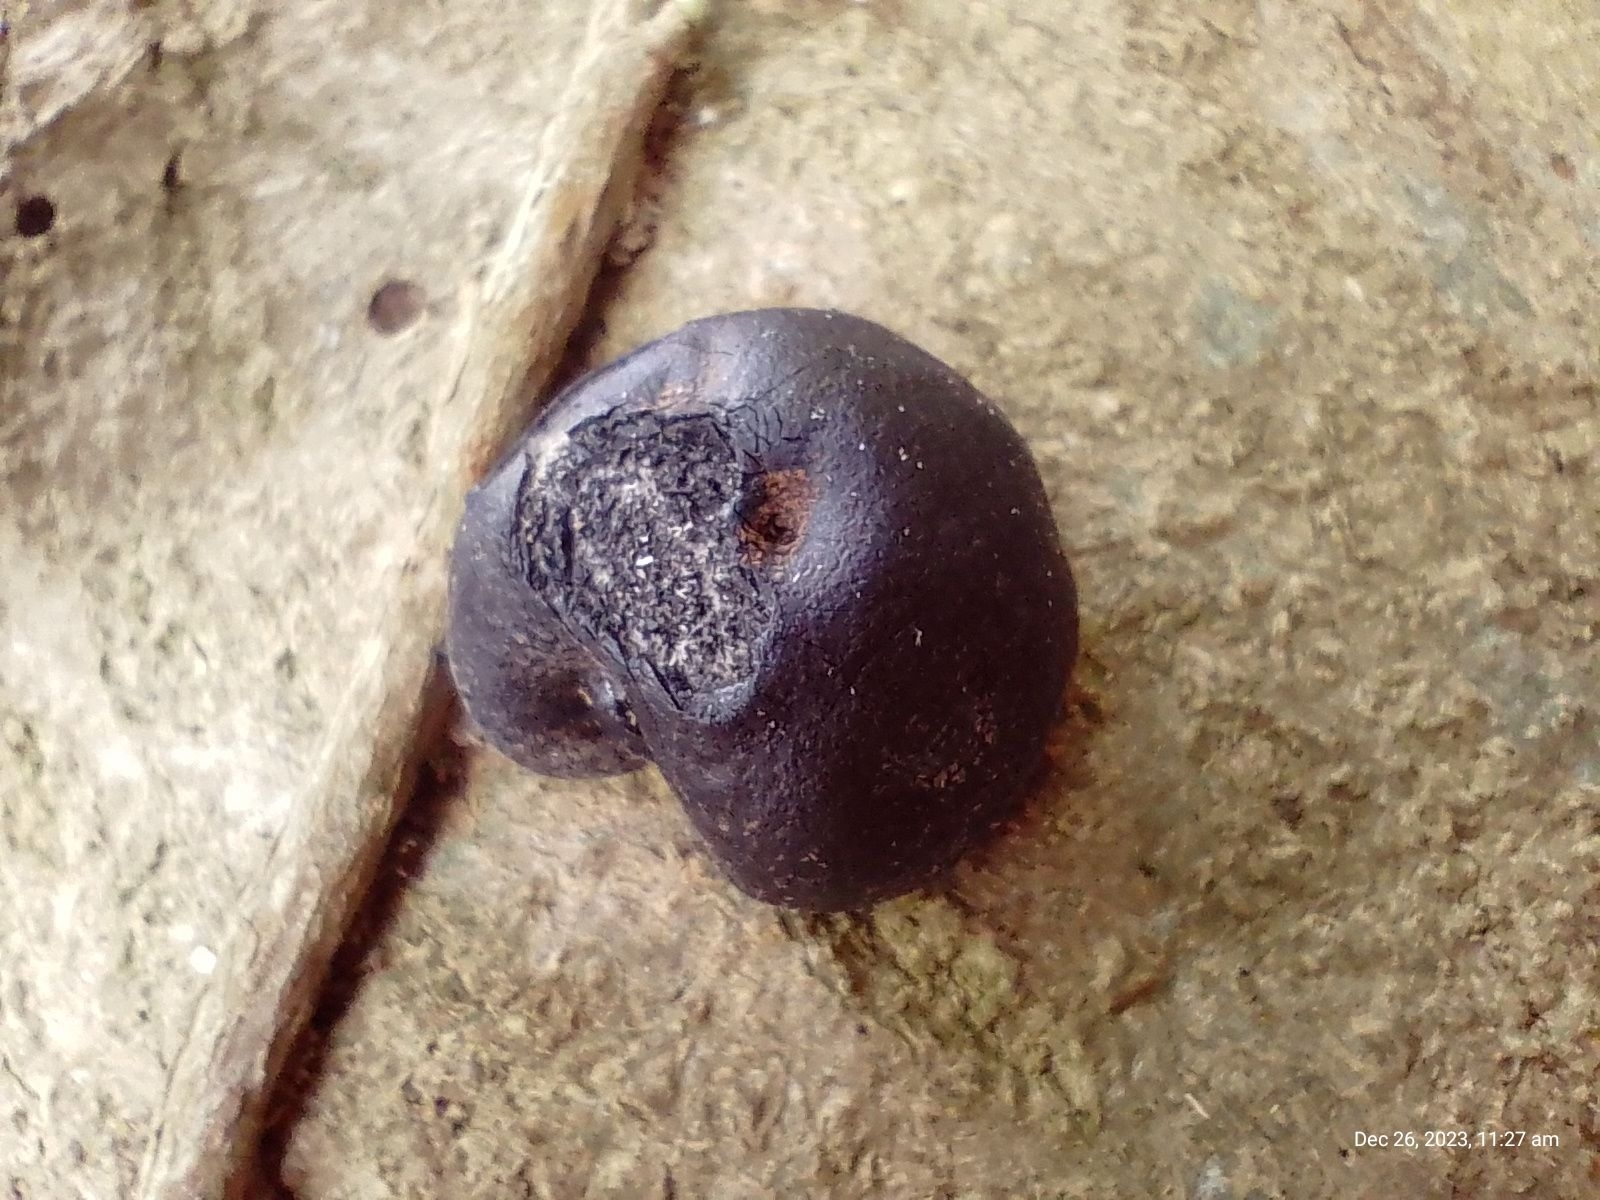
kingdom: Fungi
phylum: Ascomycota
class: Sordariomycetes
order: Xylariales
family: Hypoxylaceae
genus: Daldinia
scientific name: Daldinia concentrica
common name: Cramp balls
